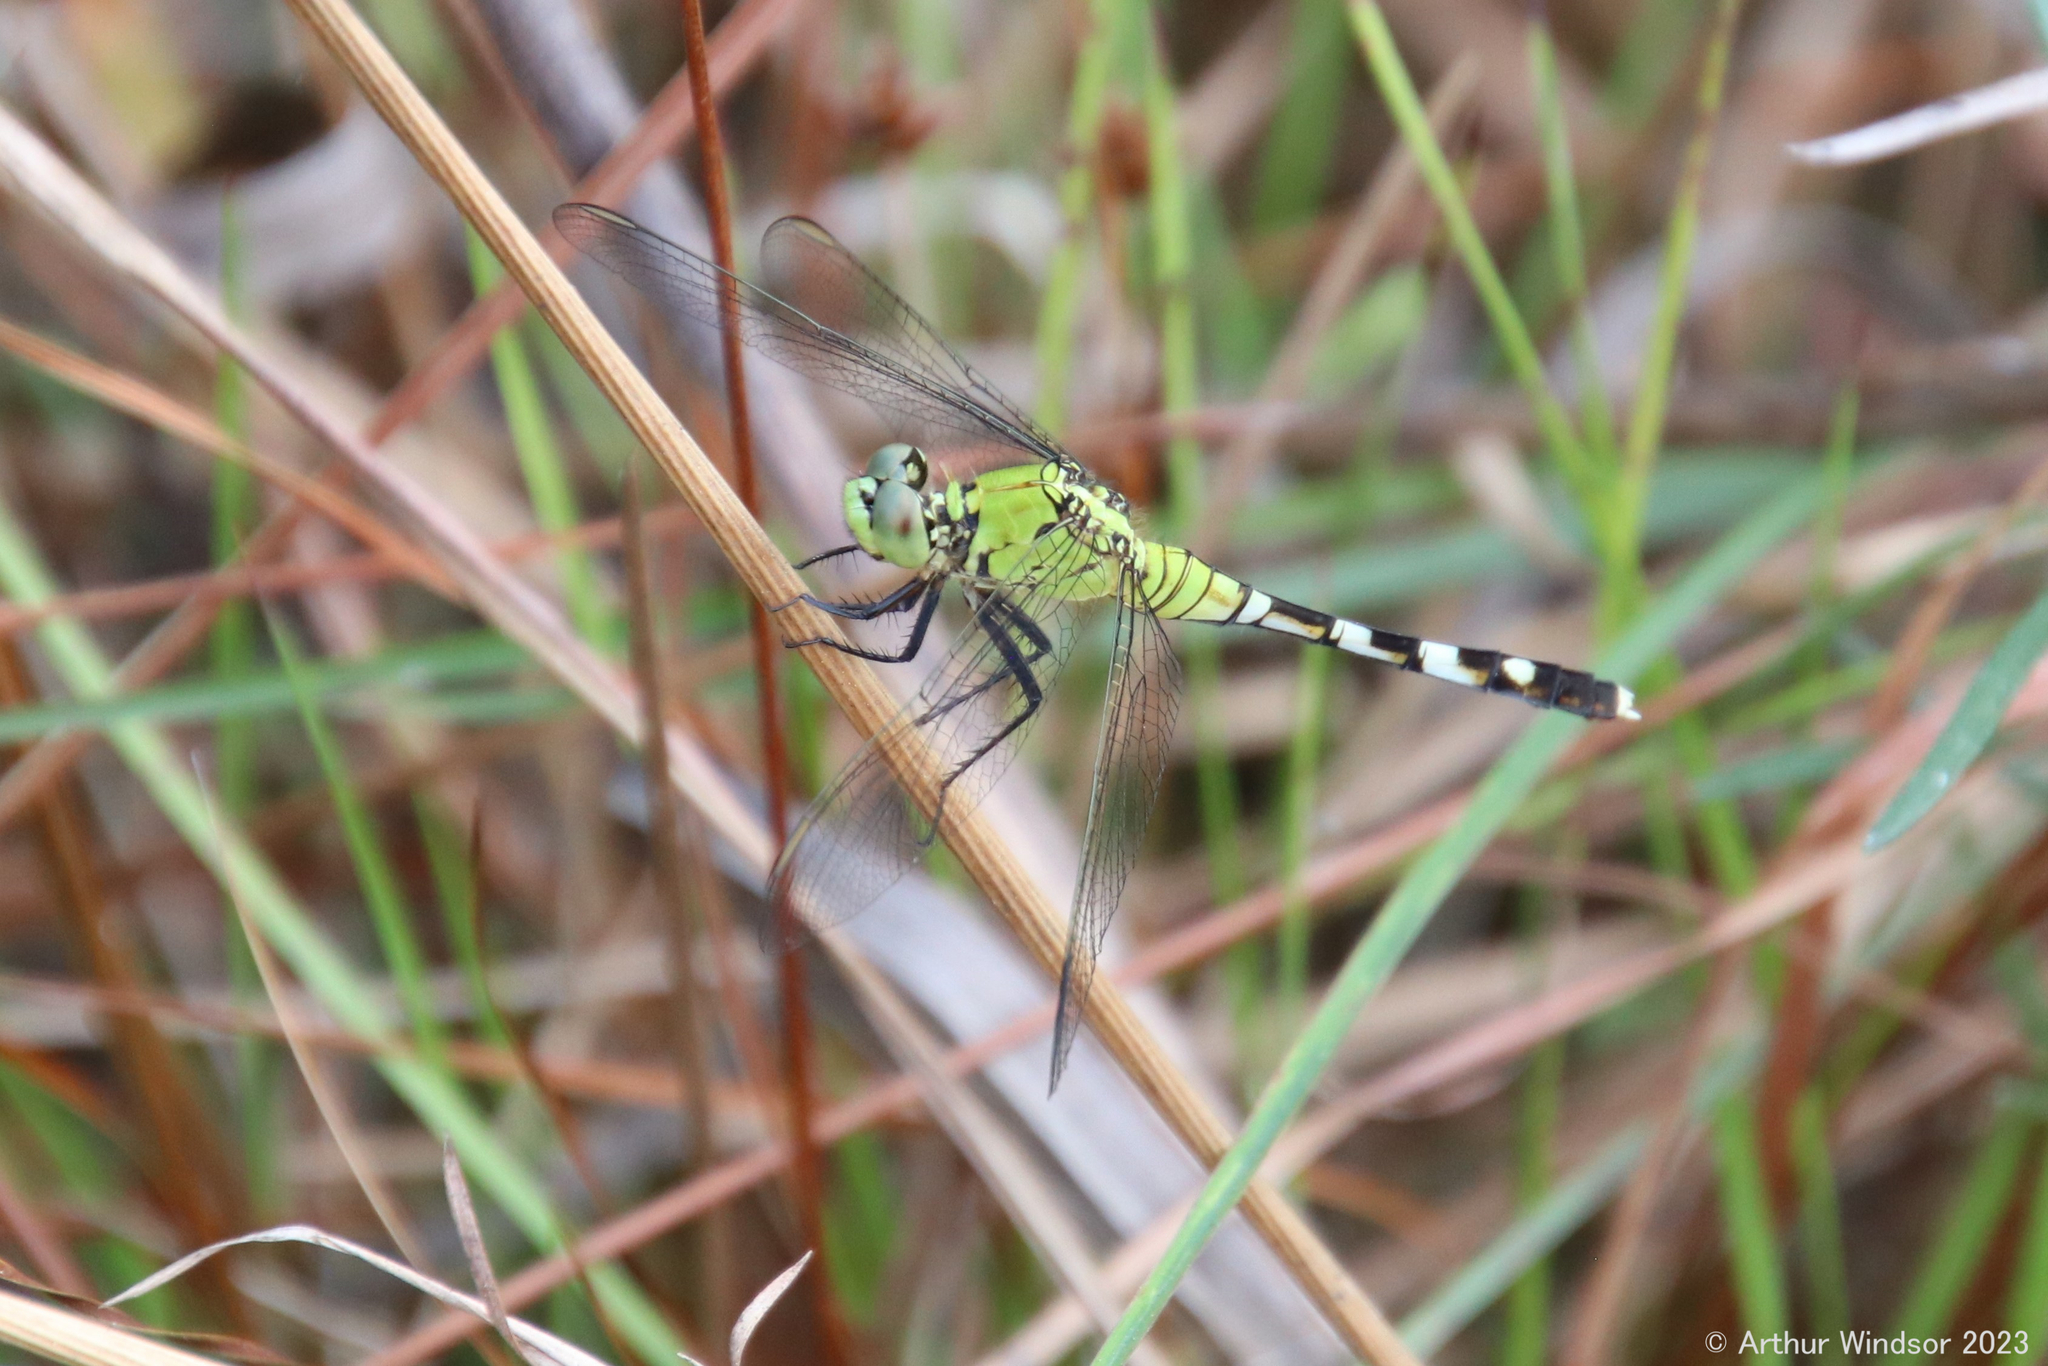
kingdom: Animalia
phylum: Arthropoda
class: Insecta
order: Odonata
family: Libellulidae
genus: Erythemis
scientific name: Erythemis simplicicollis
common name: Eastern pondhawk
